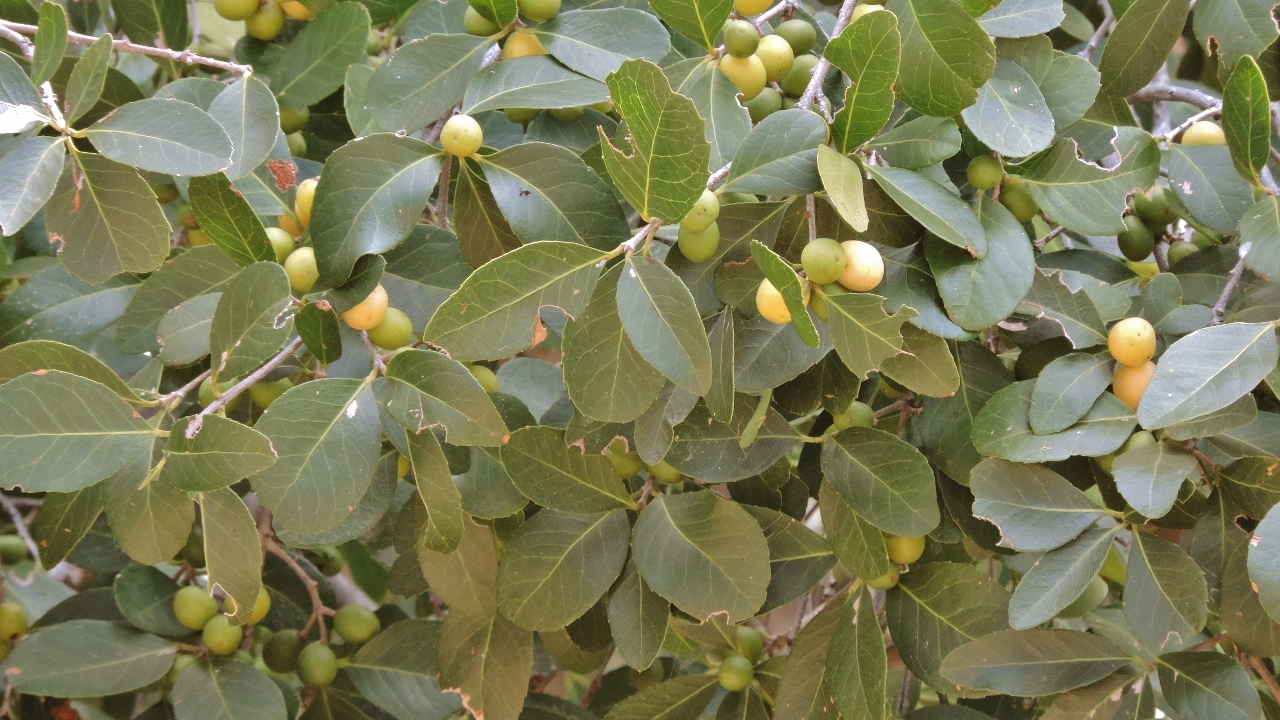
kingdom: Plantae
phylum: Tracheophyta
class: Magnoliopsida
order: Celastrales
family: Celastraceae
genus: Elaeodendron
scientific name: Elaeodendron schlechterianum
